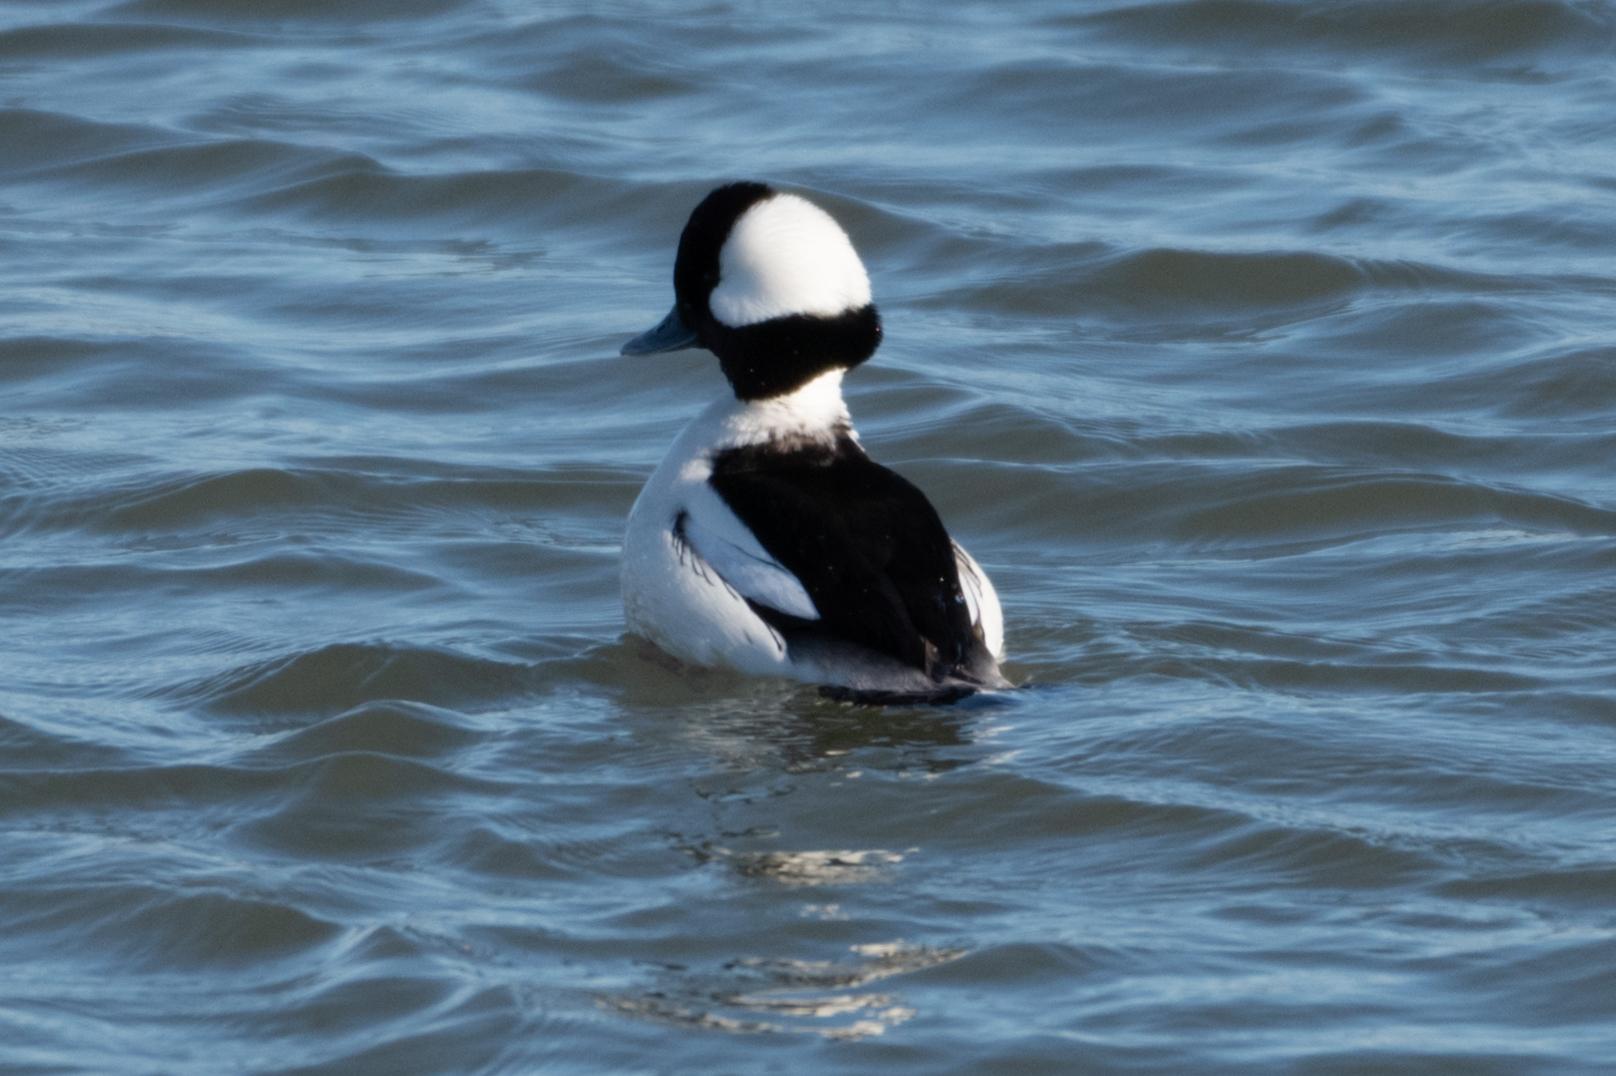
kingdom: Animalia
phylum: Chordata
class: Aves
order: Anseriformes
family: Anatidae
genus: Bucephala
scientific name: Bucephala albeola
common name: Bufflehead
